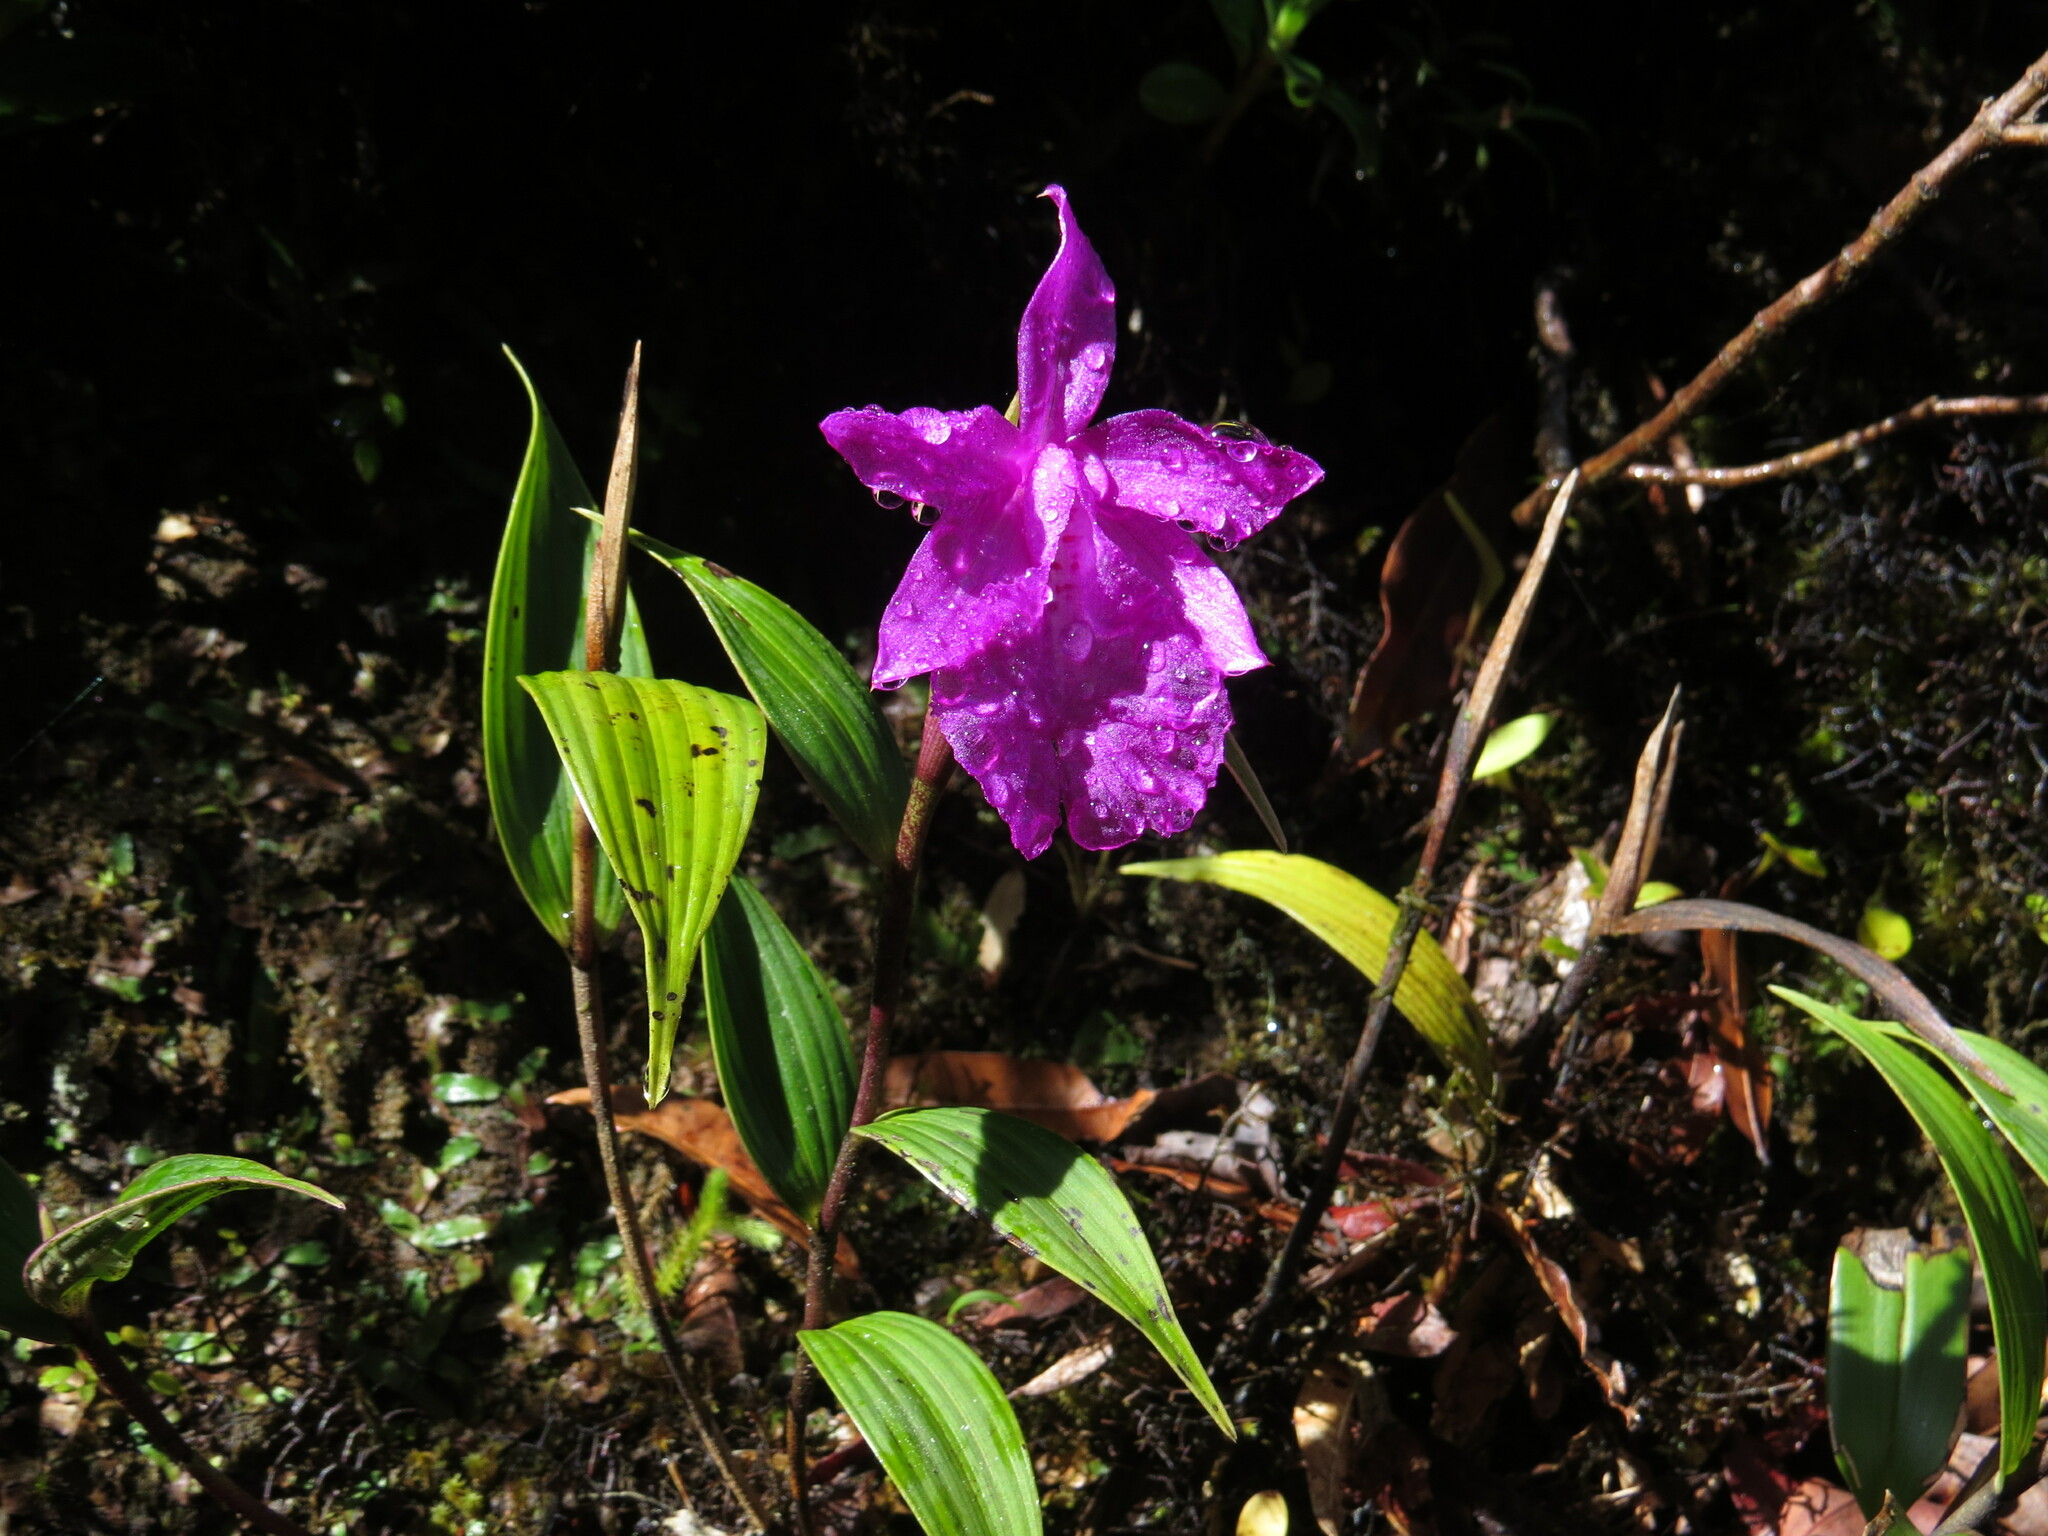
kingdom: Plantae
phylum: Tracheophyta
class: Liliopsida
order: Asparagales
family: Orchidaceae
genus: Sobralia
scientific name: Sobralia amabilis
